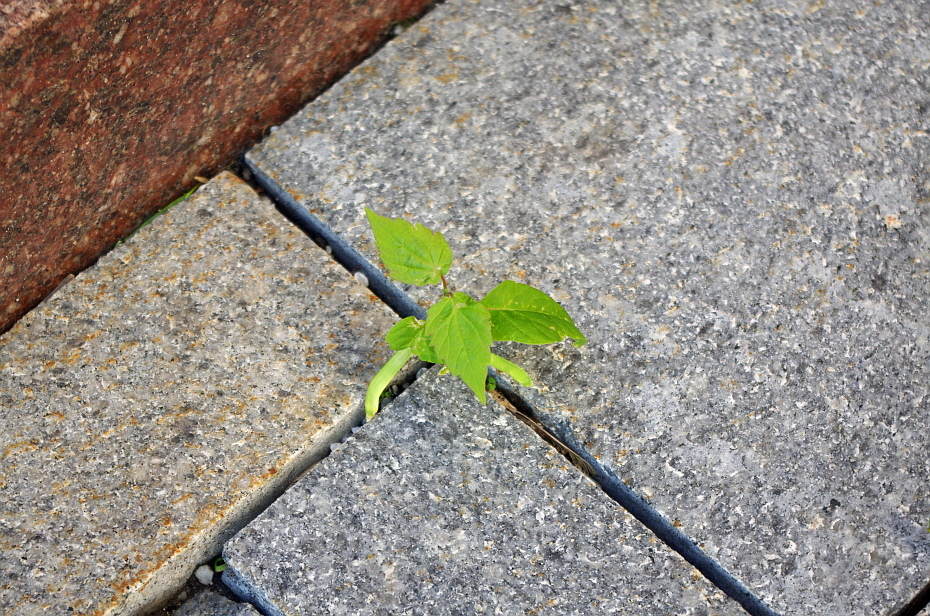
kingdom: Plantae
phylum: Tracheophyta
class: Magnoliopsida
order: Sapindales
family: Sapindaceae
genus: Acer
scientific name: Acer negundo
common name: Ashleaf maple
